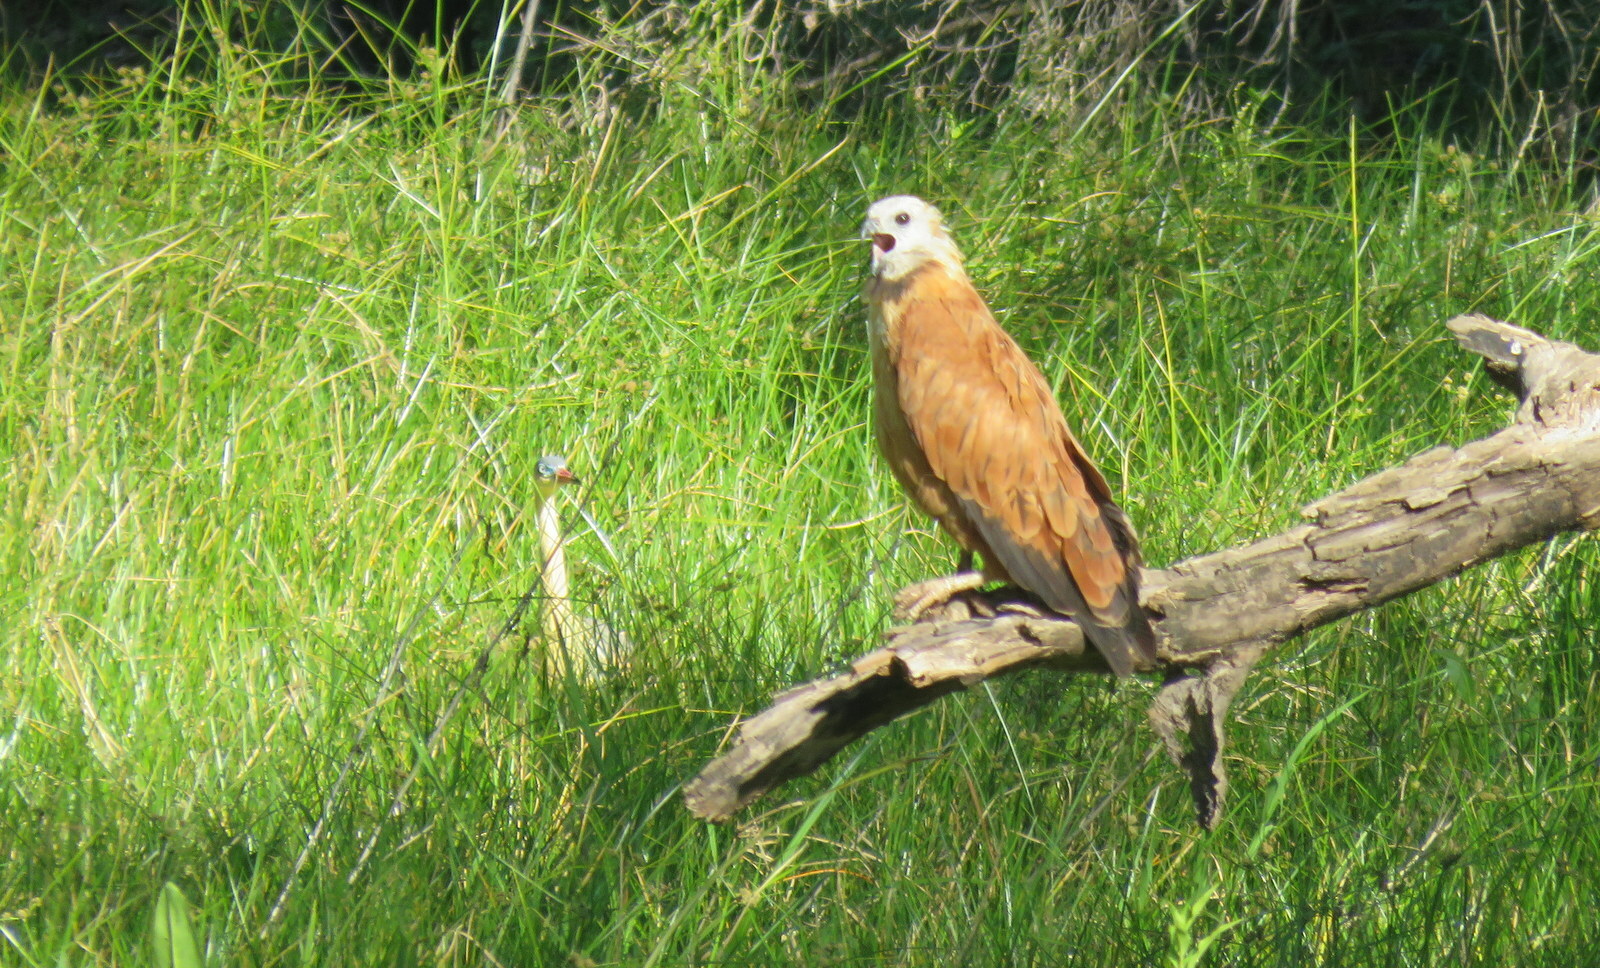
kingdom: Animalia
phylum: Chordata
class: Aves
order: Accipitriformes
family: Accipitridae
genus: Buteogallus
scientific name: Buteogallus meridionalis
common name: Savanna hawk
